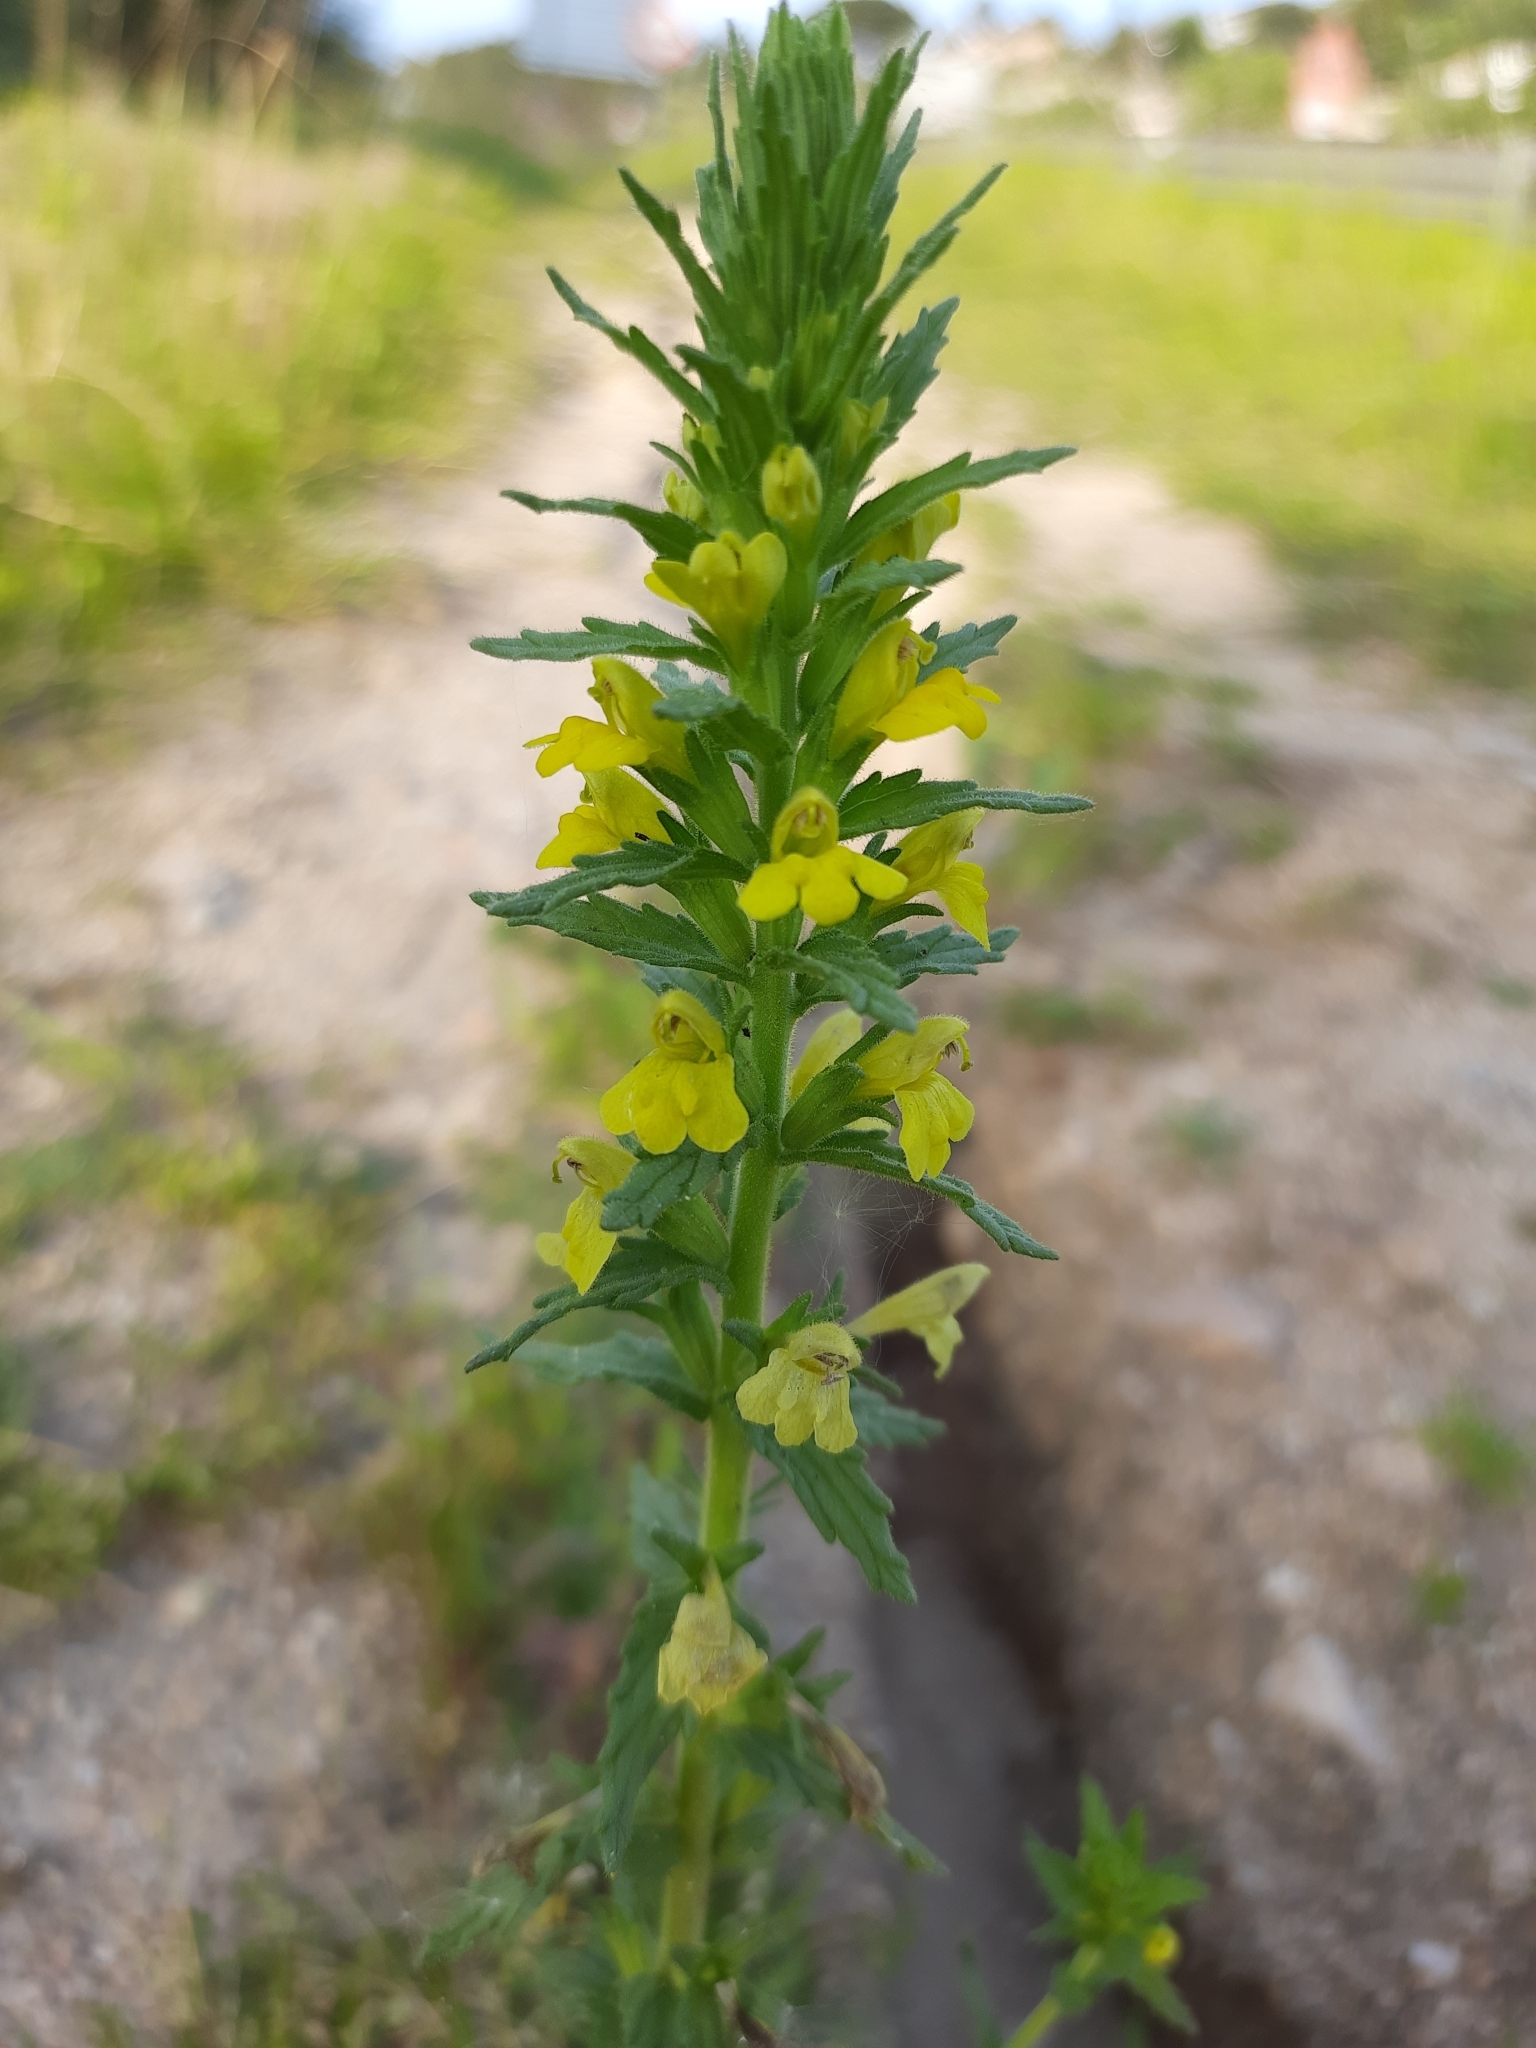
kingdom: Plantae
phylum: Tracheophyta
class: Magnoliopsida
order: Lamiales
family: Orobanchaceae
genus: Bellardia
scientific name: Bellardia viscosa
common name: Sticky parentucellia
